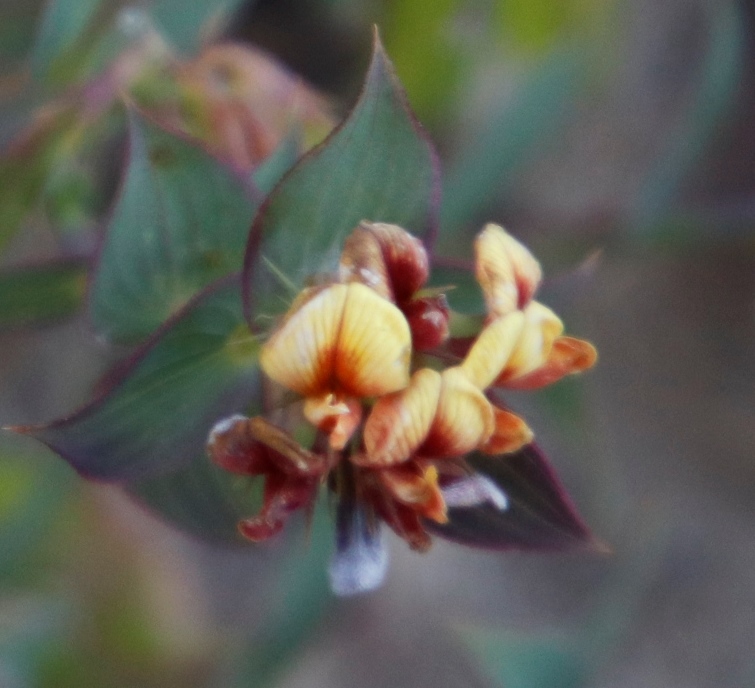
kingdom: Plantae
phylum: Tracheophyta
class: Magnoliopsida
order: Fabales
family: Fabaceae
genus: Aspalathus
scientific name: Aspalathus crenata
